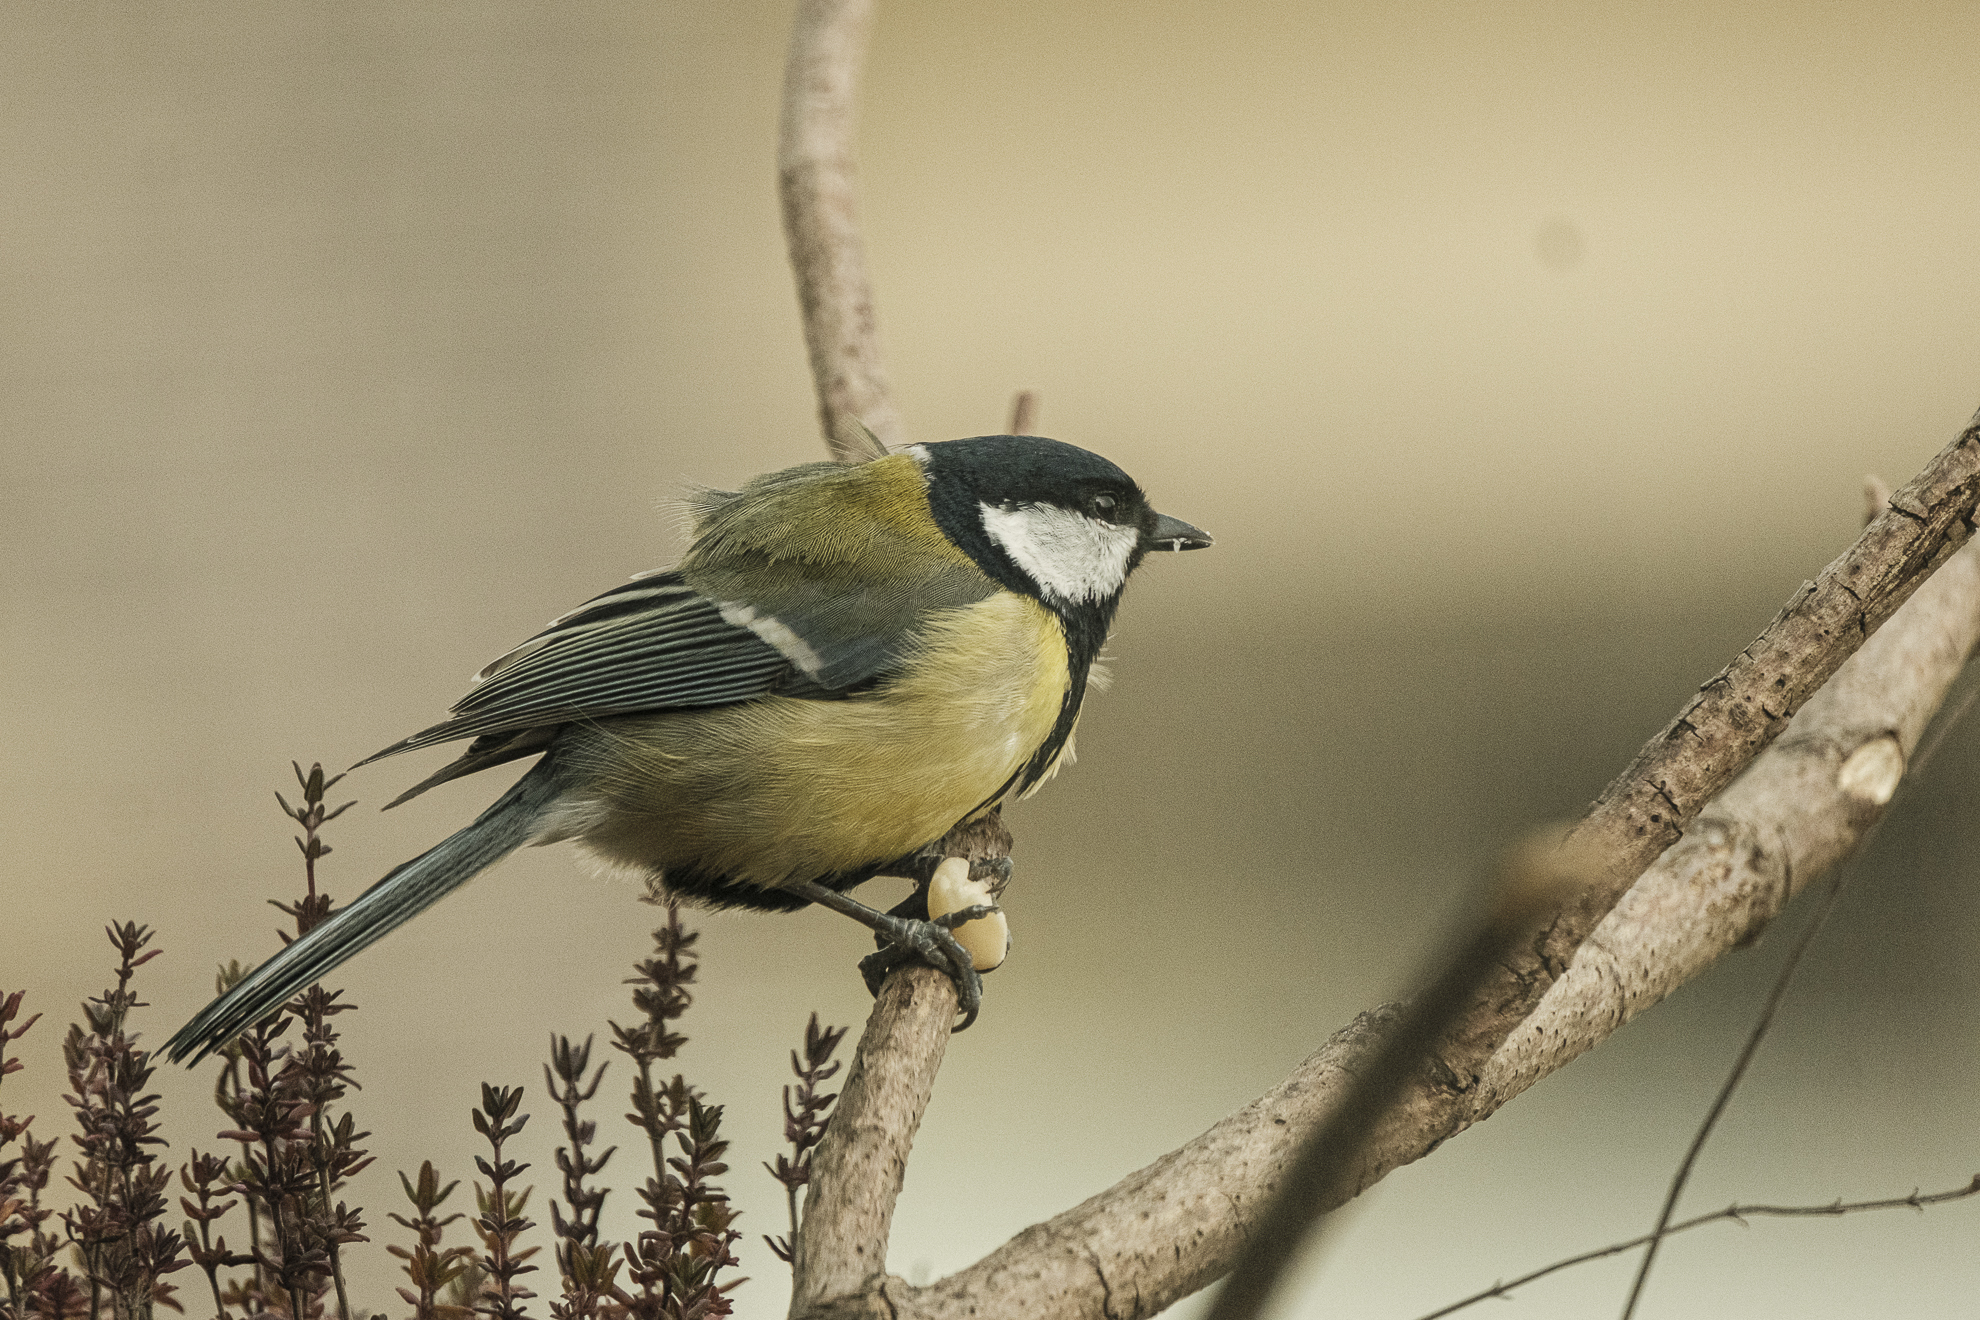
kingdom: Animalia
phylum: Chordata
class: Aves
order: Passeriformes
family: Paridae
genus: Parus
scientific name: Parus major
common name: Great tit
